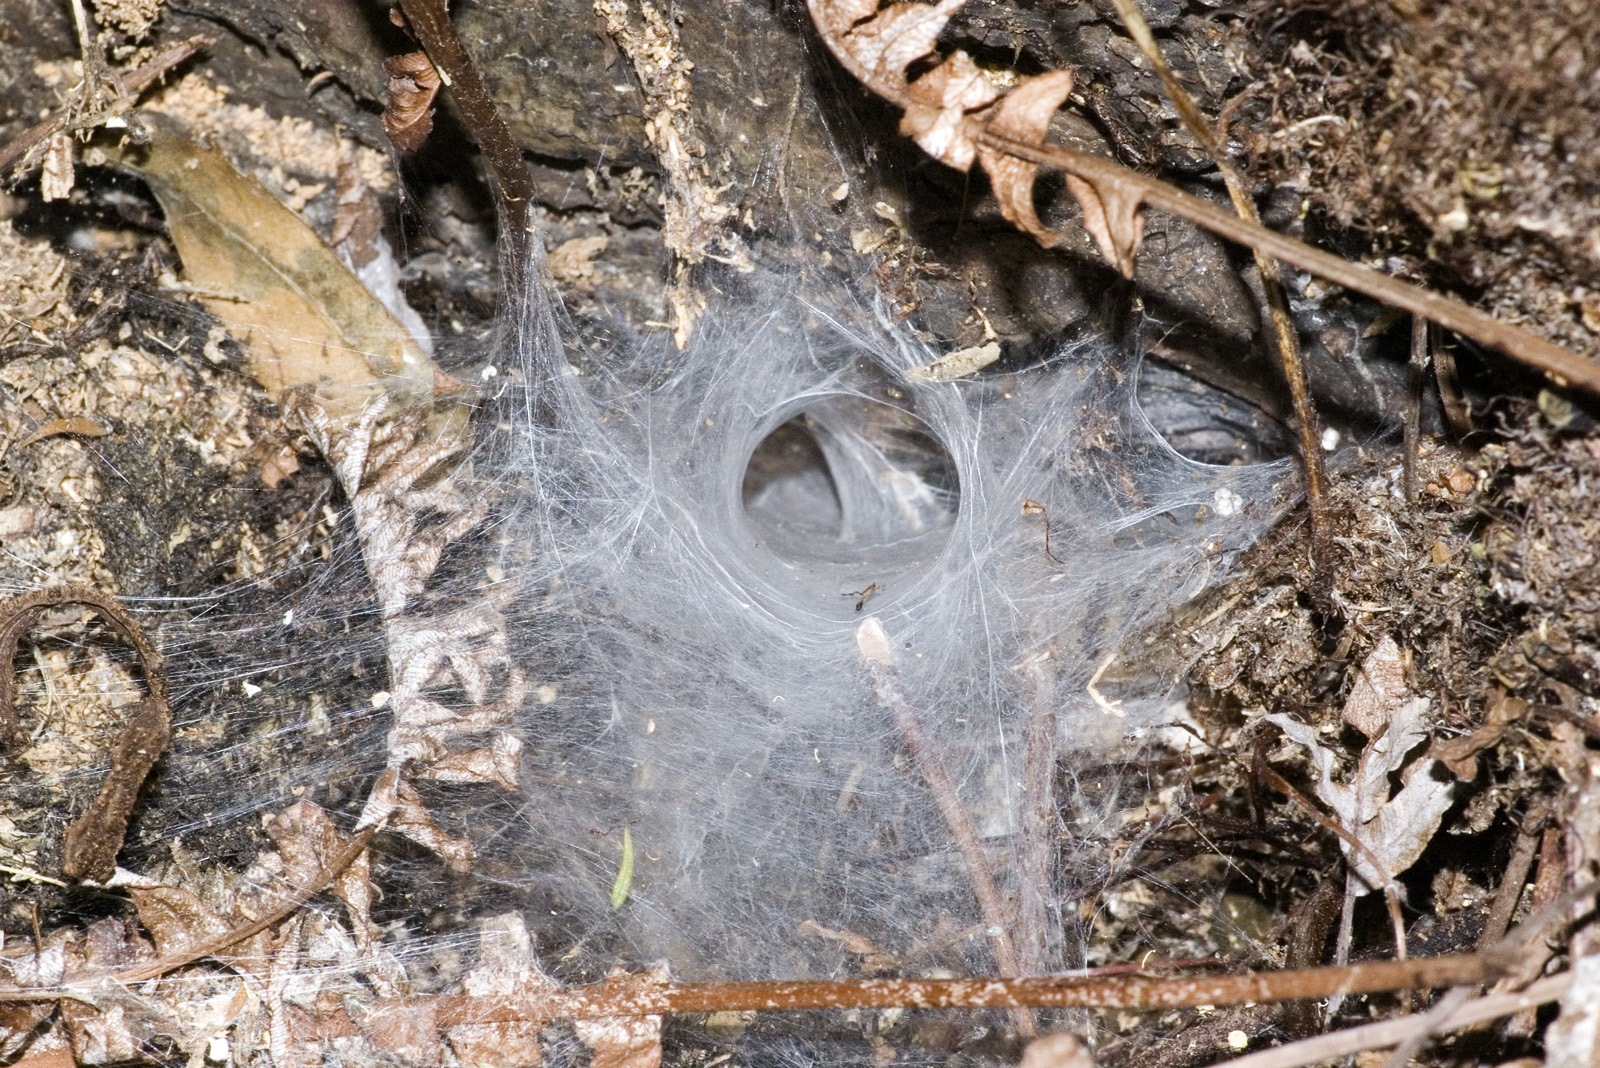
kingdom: Animalia
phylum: Arthropoda
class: Arachnida
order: Araneae
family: Porrhothelidae
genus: Porrhothele
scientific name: Porrhothele antipodiana
